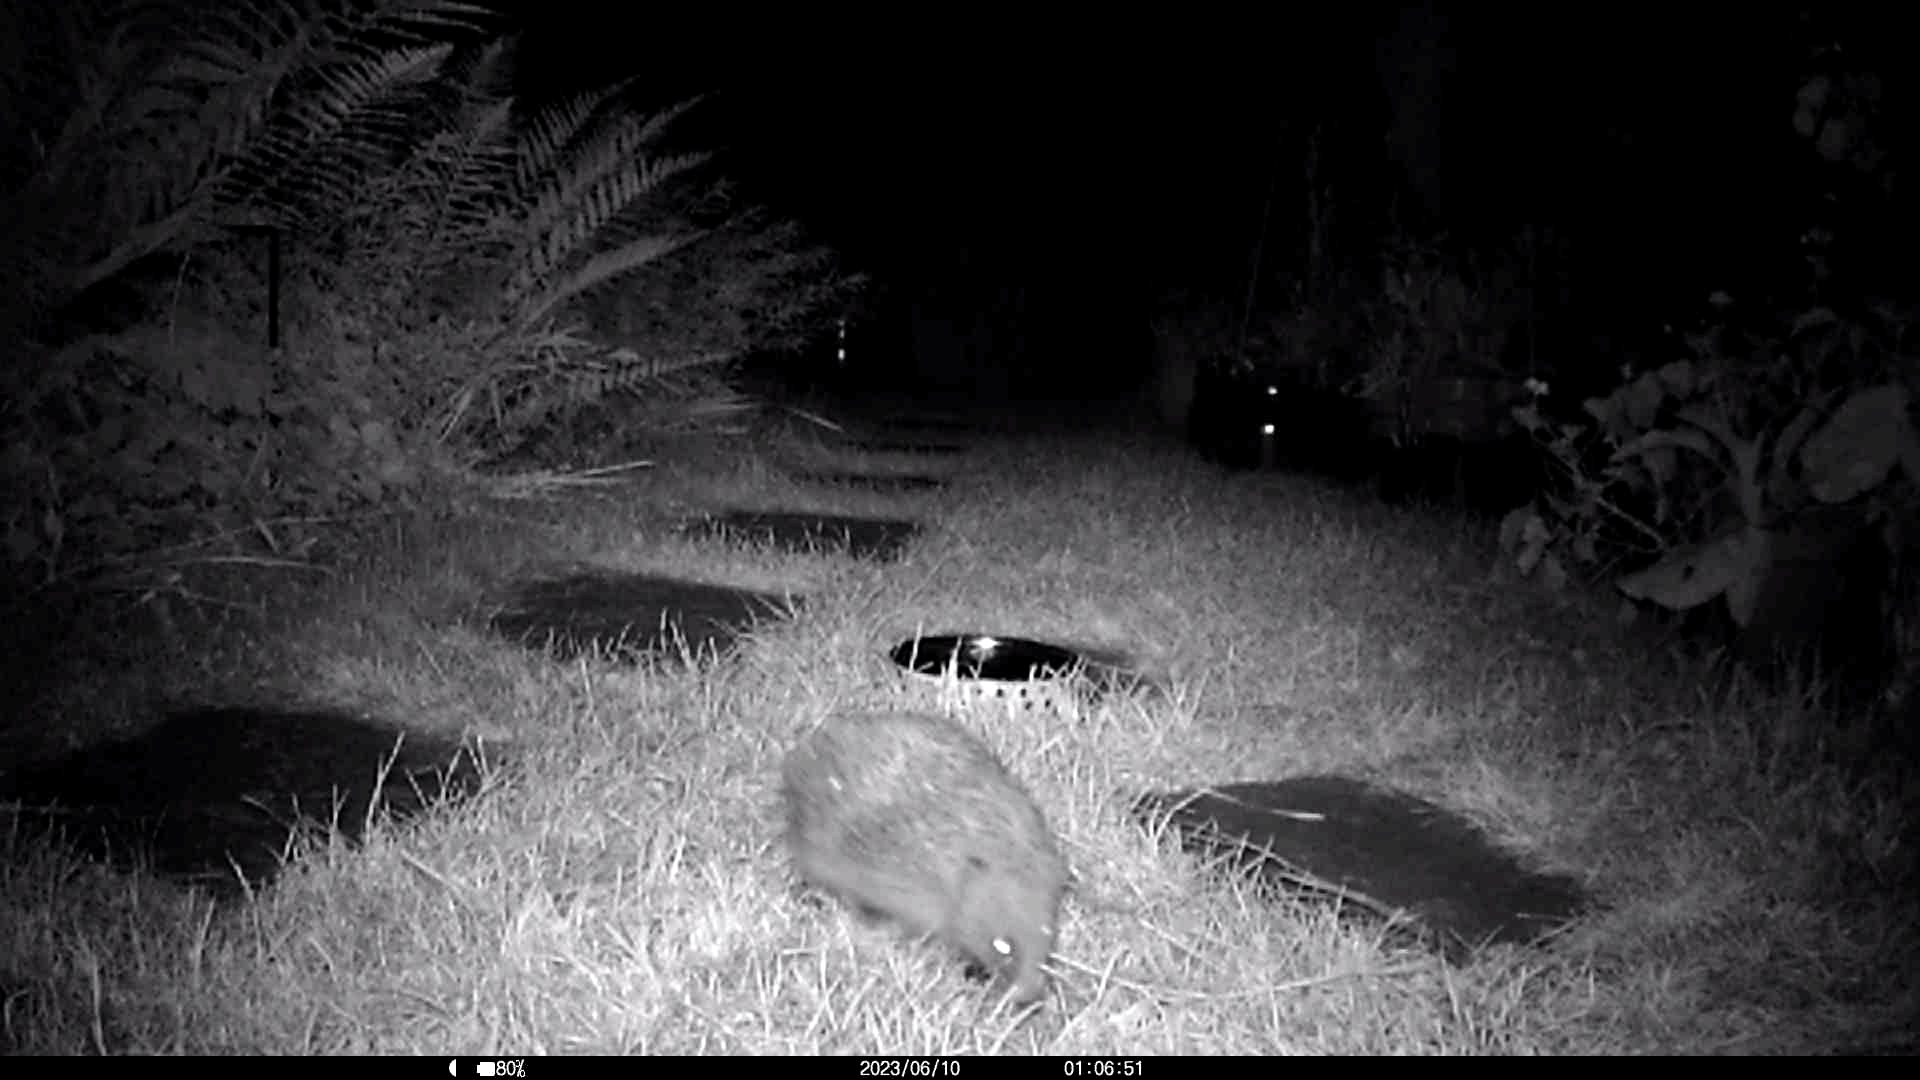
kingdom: Animalia
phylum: Chordata
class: Mammalia
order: Erinaceomorpha
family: Erinaceidae
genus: Erinaceus
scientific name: Erinaceus europaeus
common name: West european hedgehog
